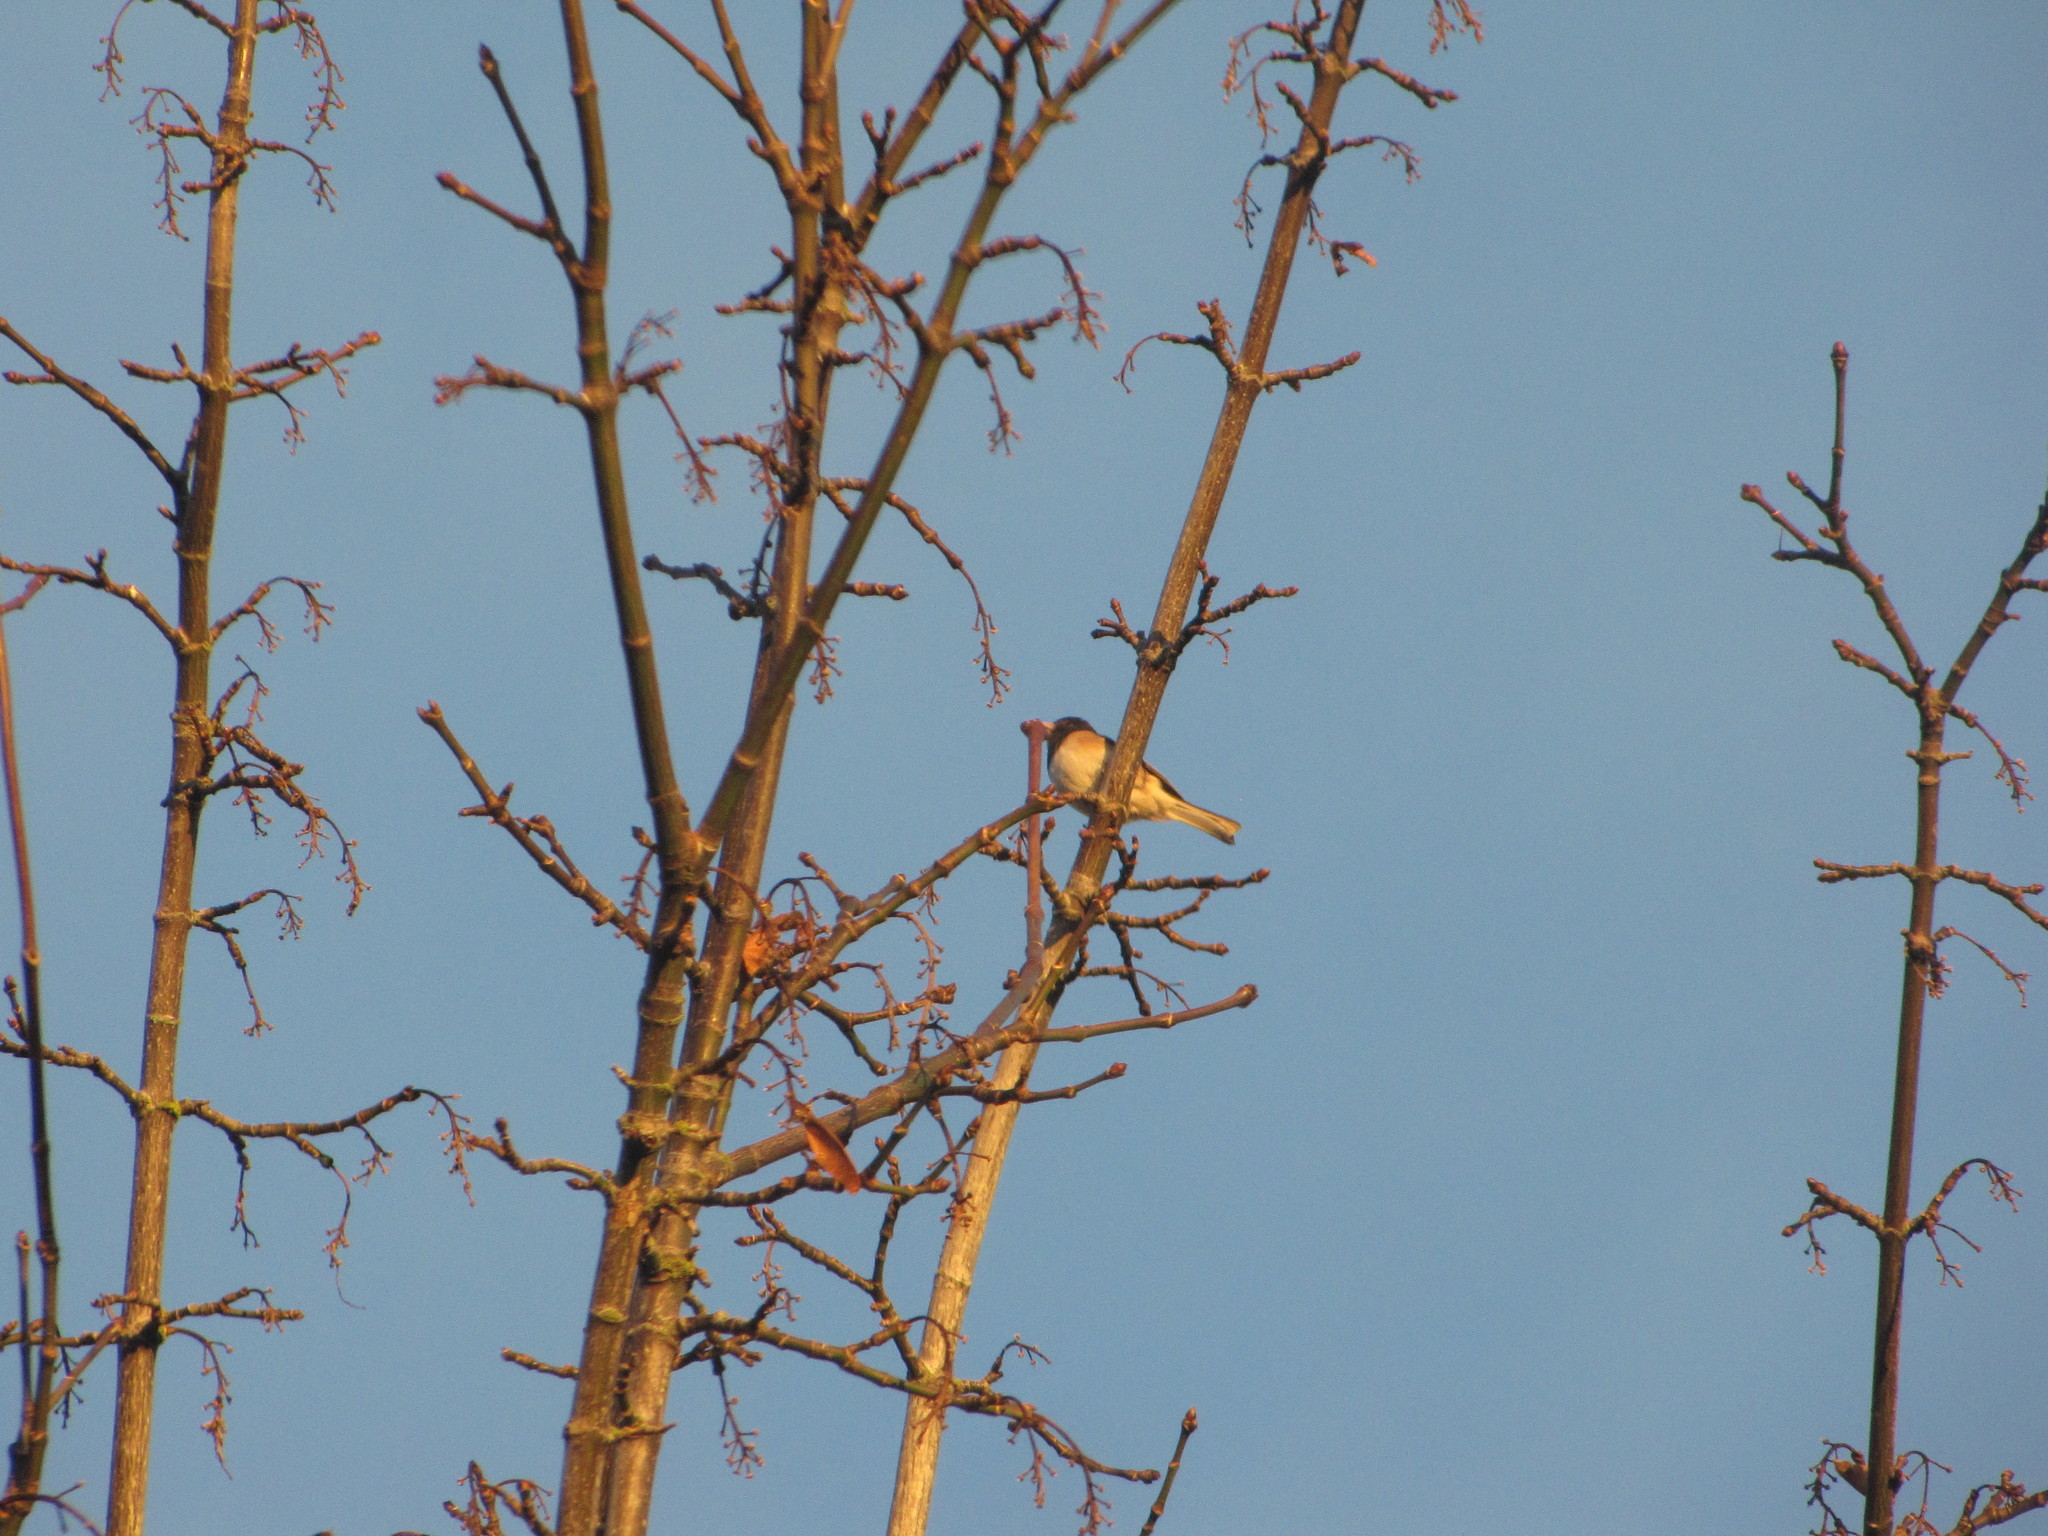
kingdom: Animalia
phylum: Chordata
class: Aves
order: Passeriformes
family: Passerellidae
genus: Junco
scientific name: Junco hyemalis
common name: Dark-eyed junco
